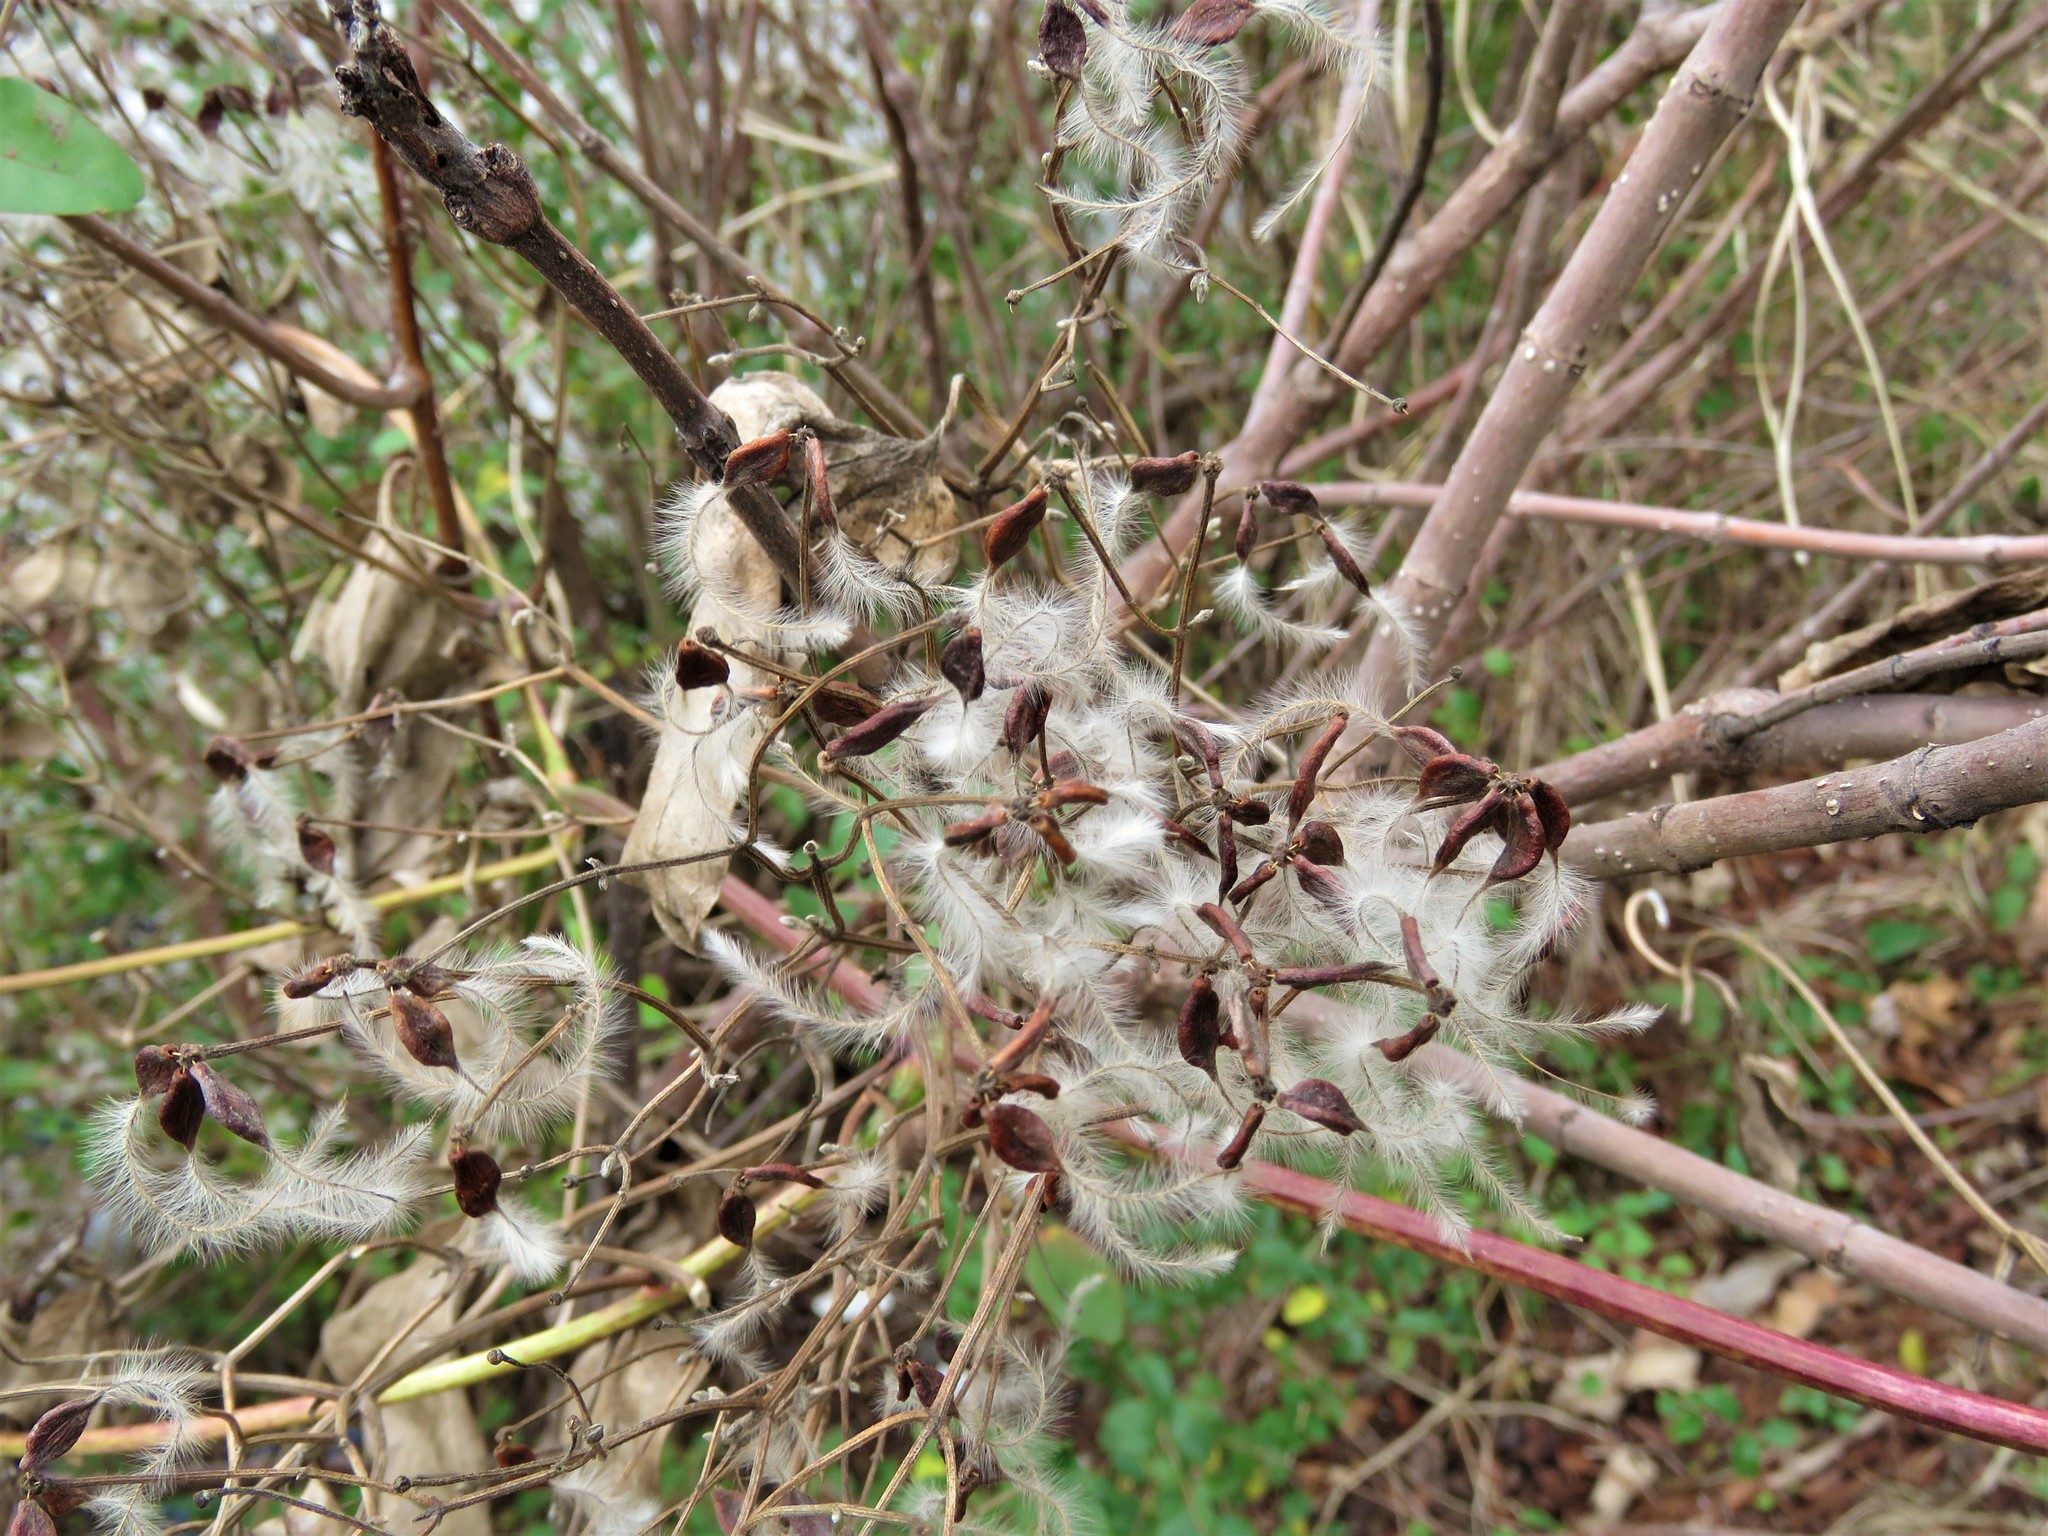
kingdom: Plantae
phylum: Tracheophyta
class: Magnoliopsida
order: Ranunculales
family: Ranunculaceae
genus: Clematis
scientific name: Clematis terniflora
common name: Sweet autumn clematis
